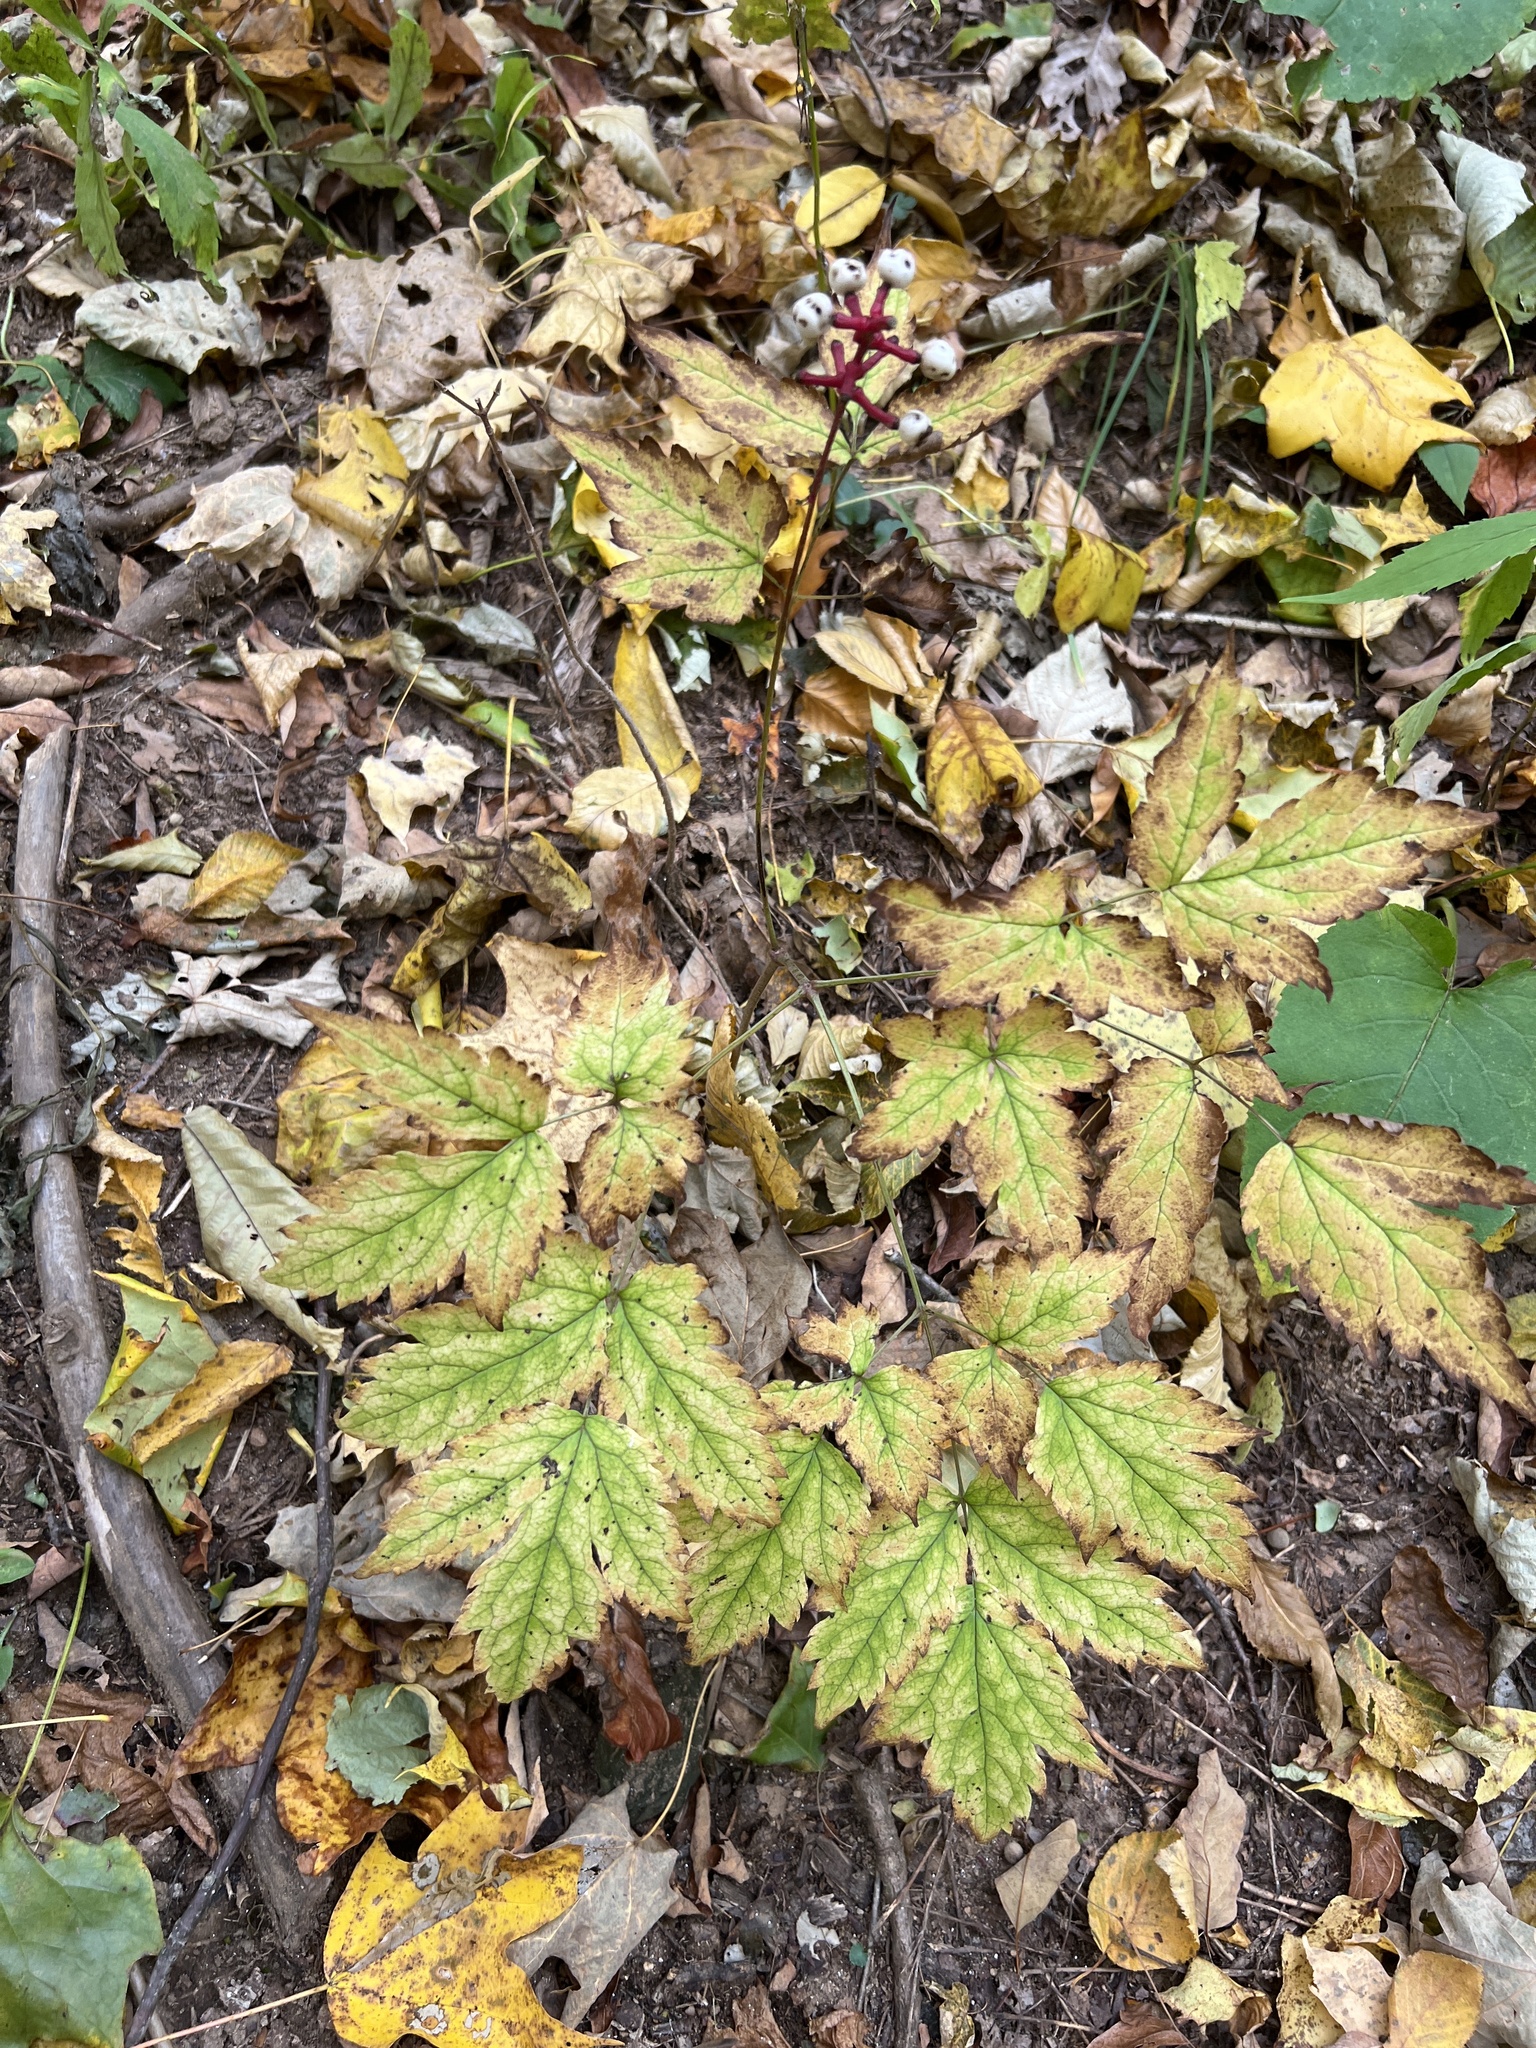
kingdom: Plantae
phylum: Tracheophyta
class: Magnoliopsida
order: Ranunculales
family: Ranunculaceae
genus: Actaea
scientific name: Actaea pachypoda
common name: Doll's-eyes
